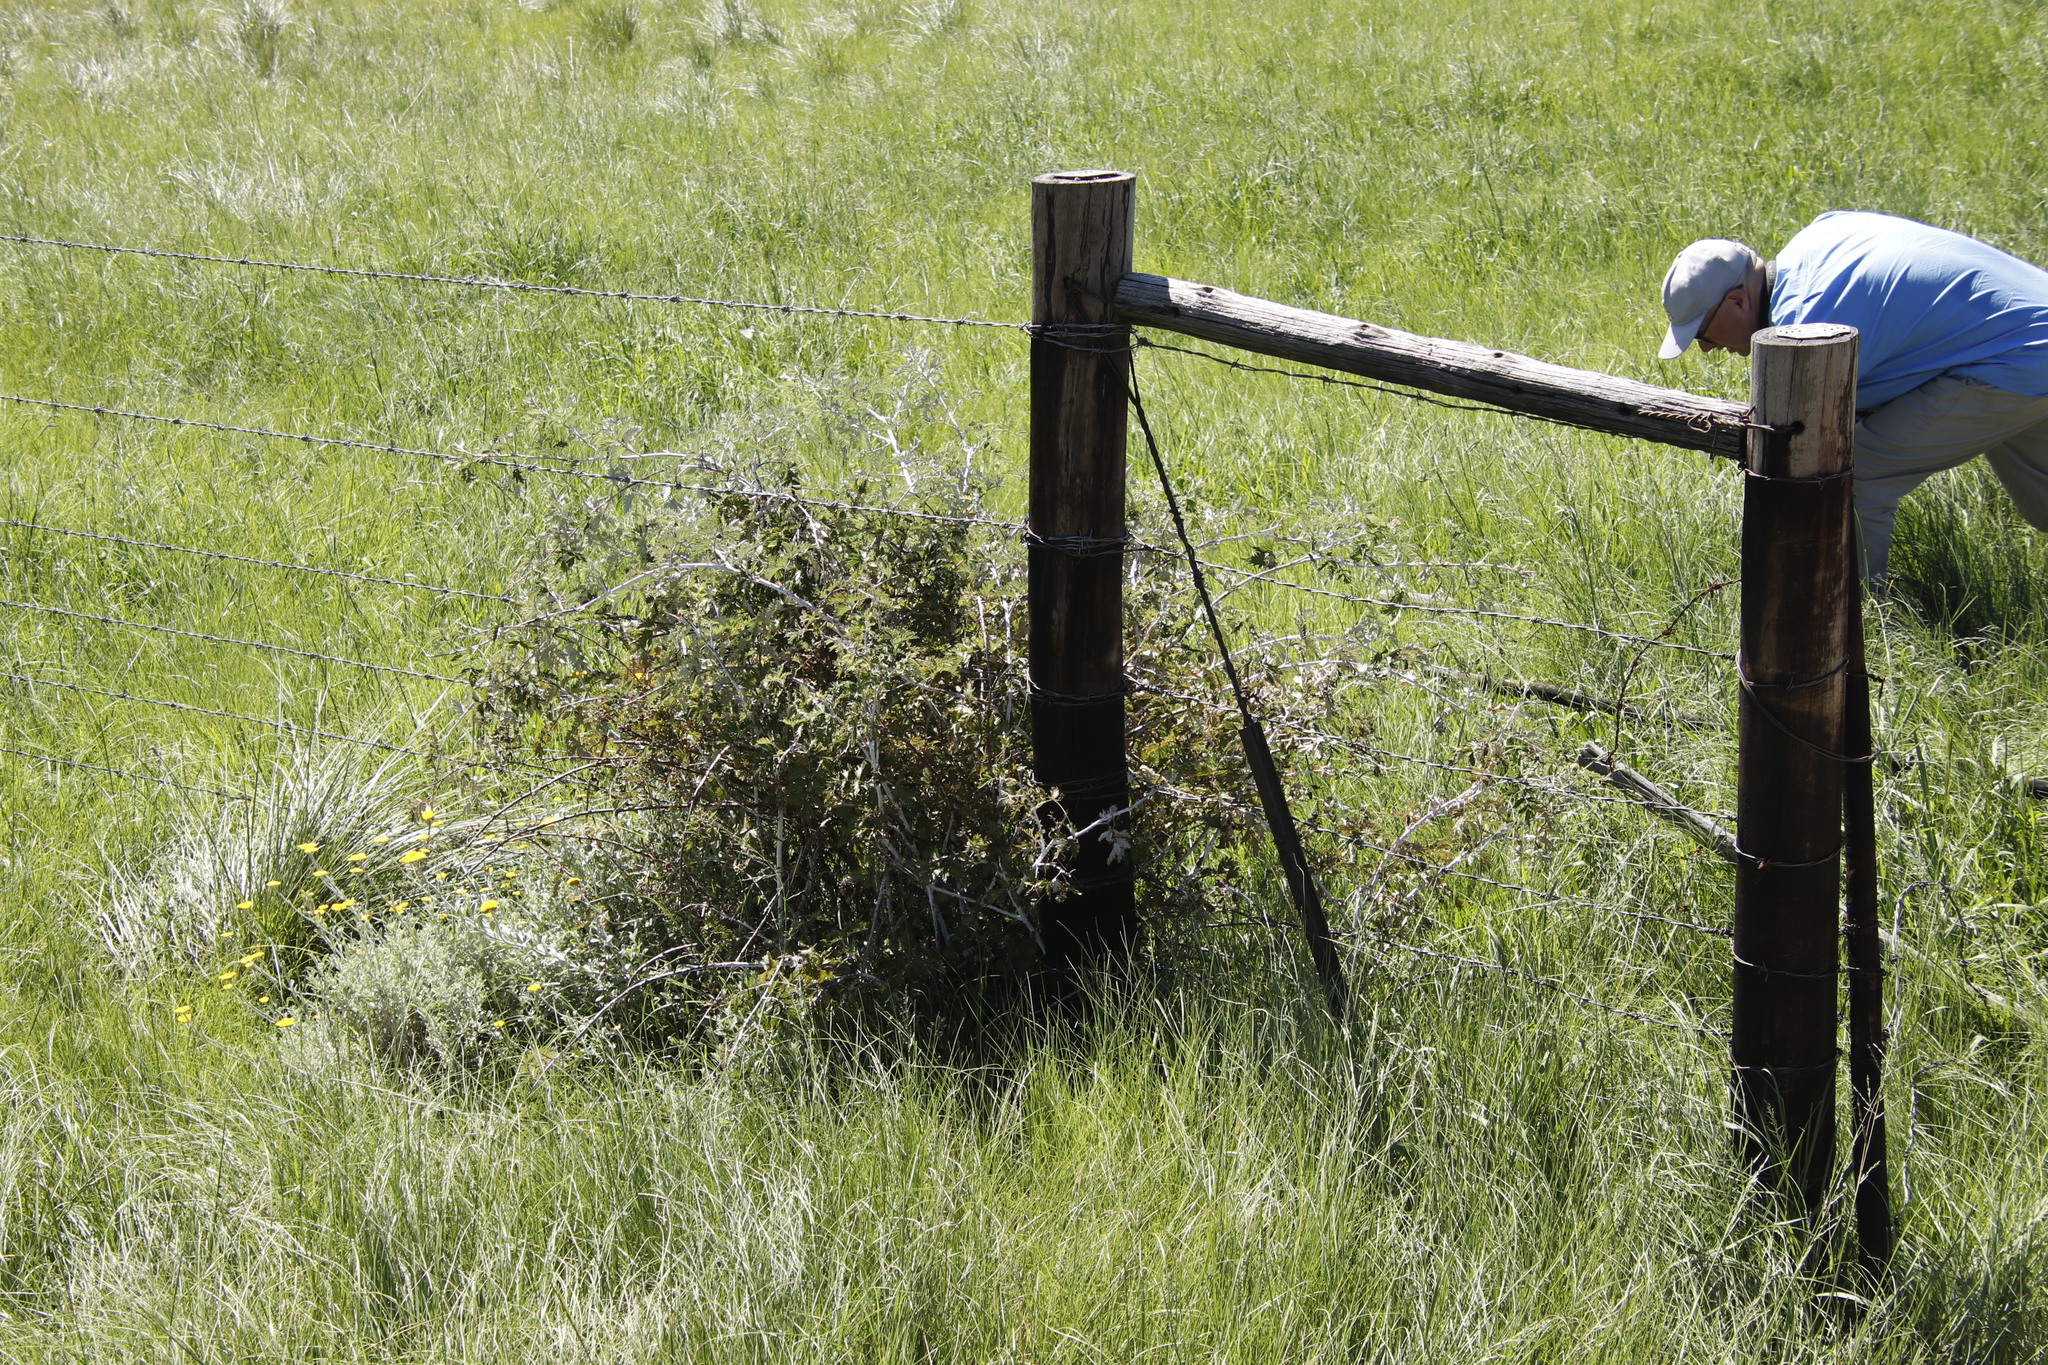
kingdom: Plantae
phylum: Tracheophyta
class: Magnoliopsida
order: Rosales
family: Rosaceae
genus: Rubus
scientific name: Rubus ludwigii
